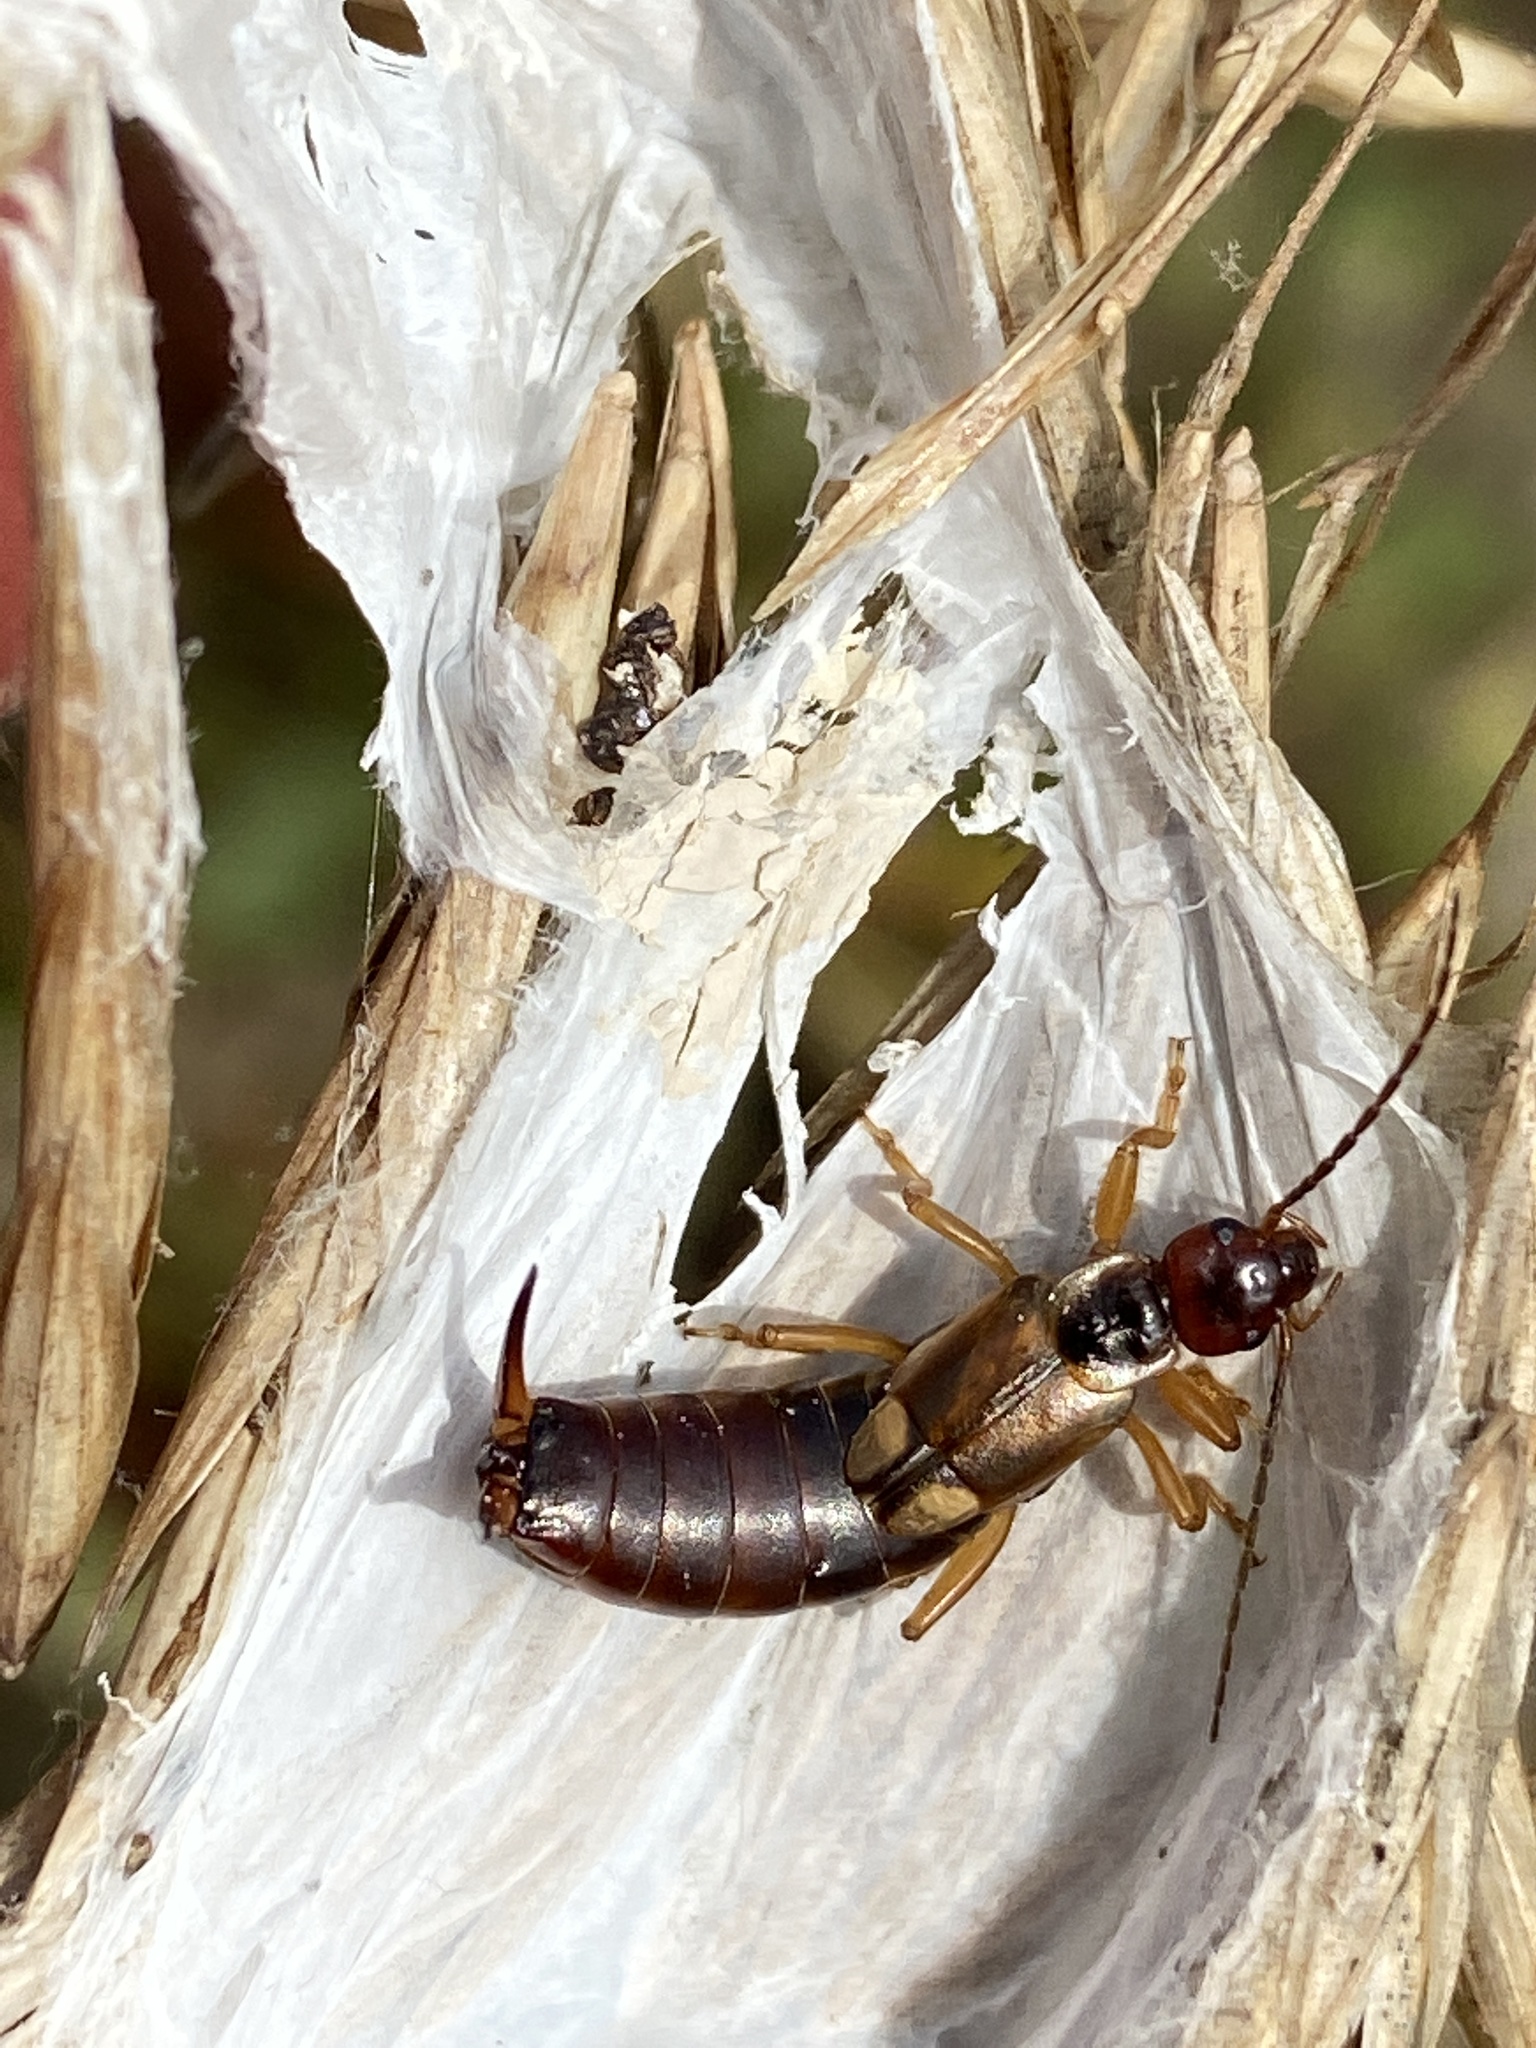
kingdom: Animalia
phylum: Arthropoda
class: Insecta
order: Dermaptera
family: Forficulidae
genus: Forficula
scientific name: Forficula
